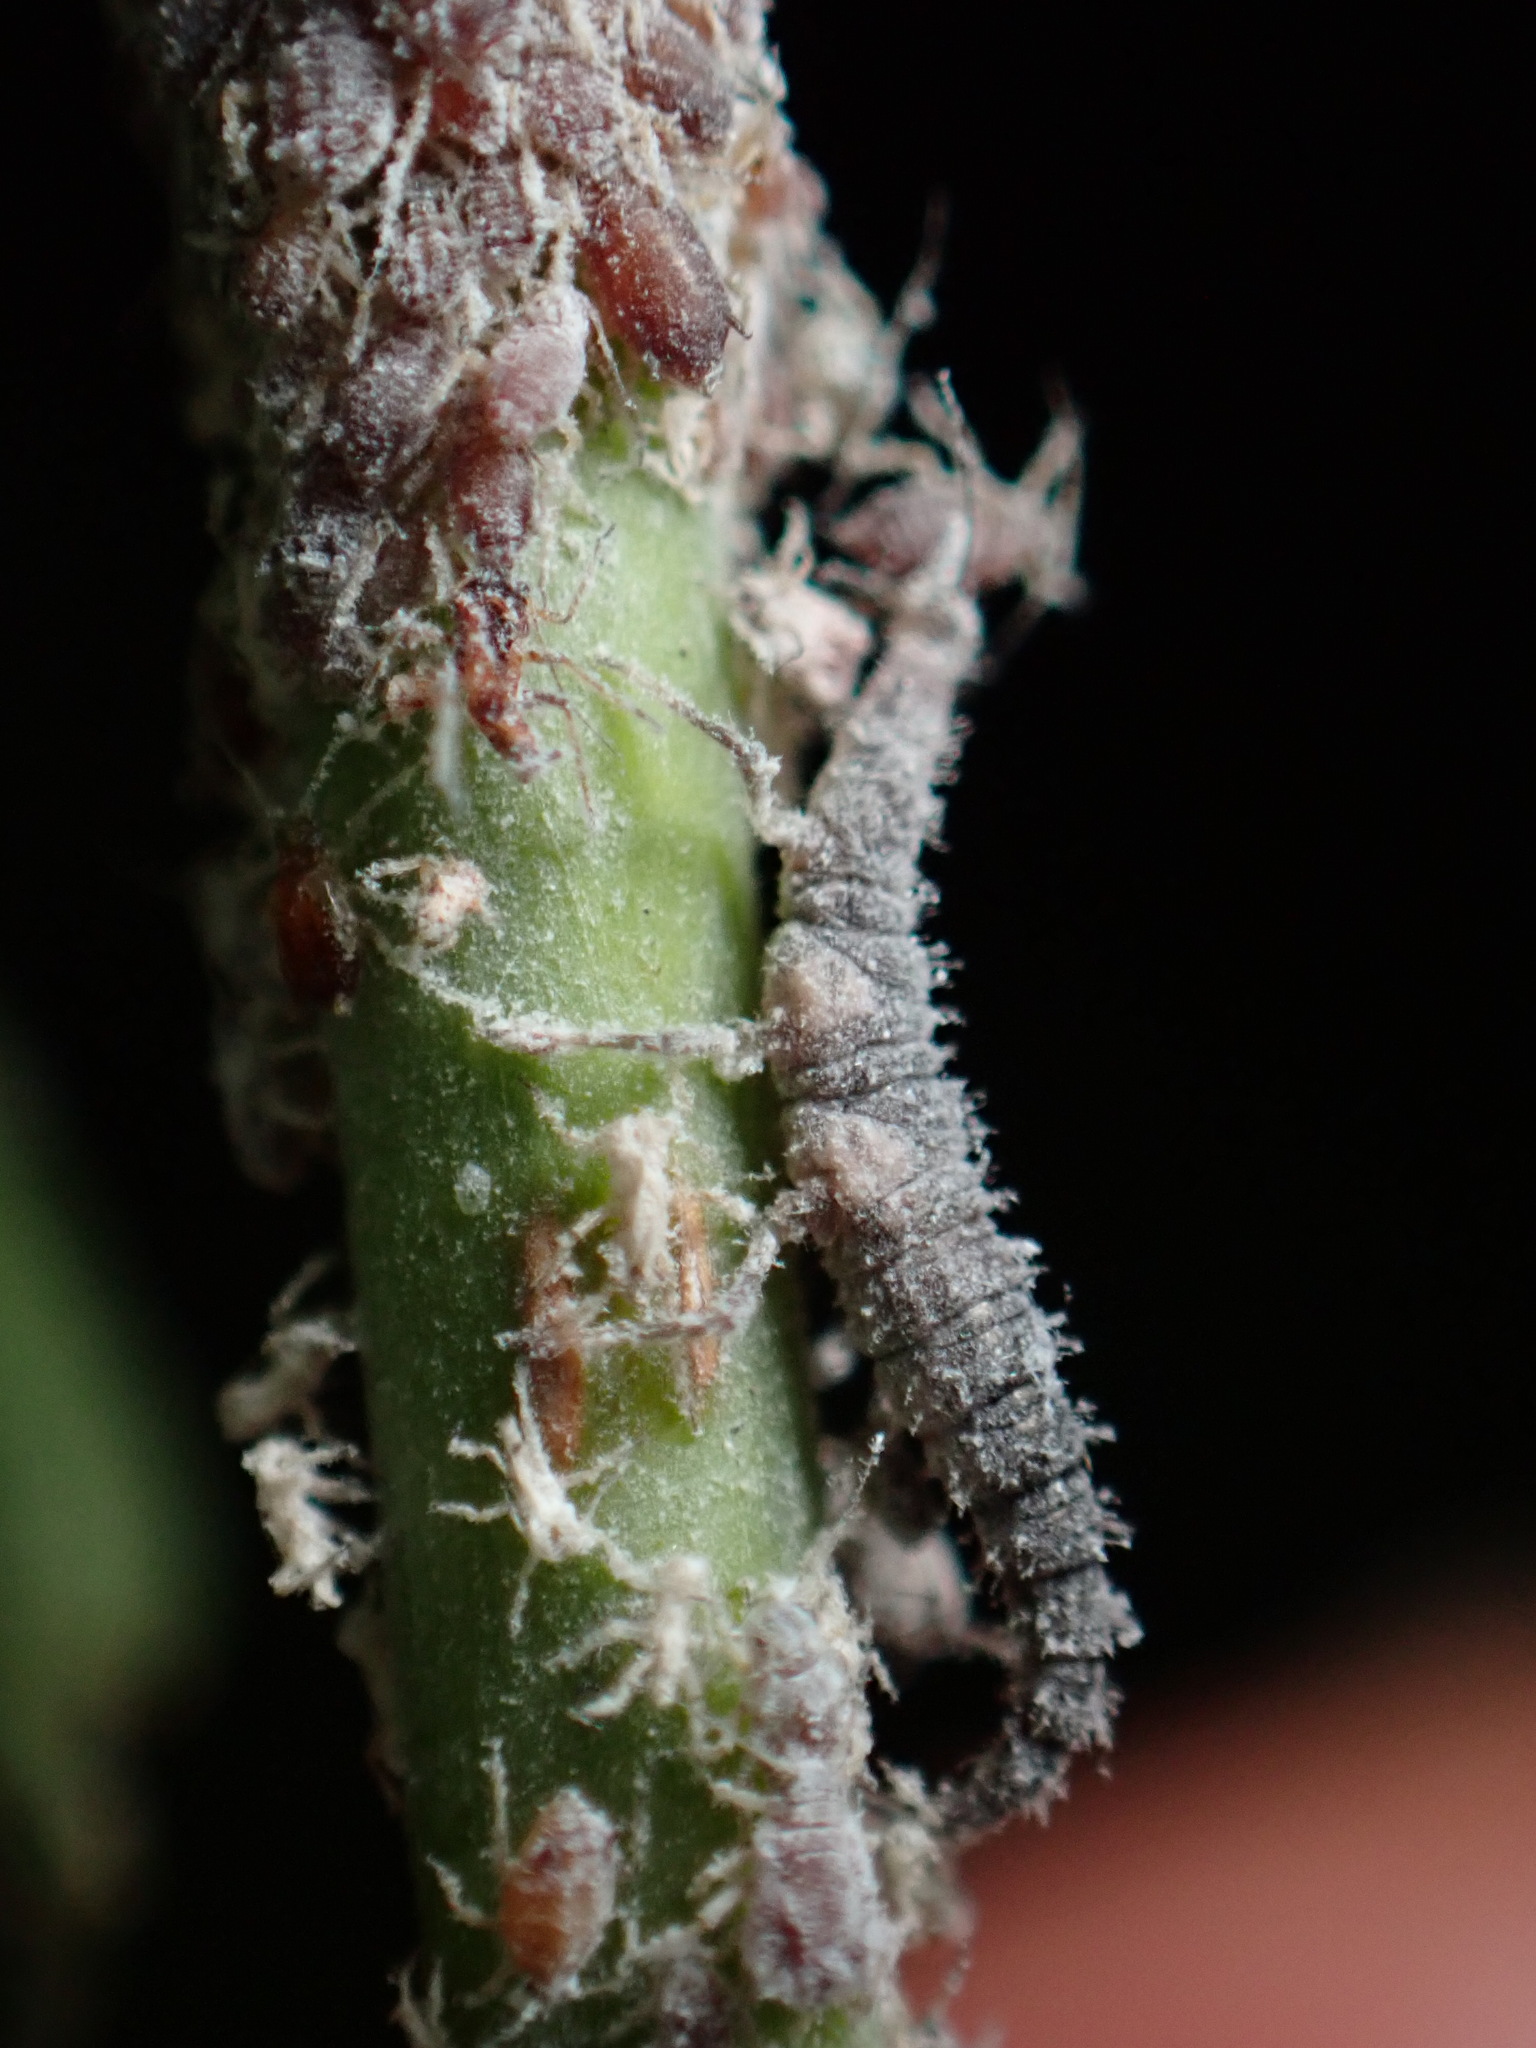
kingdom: Animalia
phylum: Arthropoda
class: Insecta
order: Hemiptera
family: Aphididae
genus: Aphis
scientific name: Aphis cephalanthi
